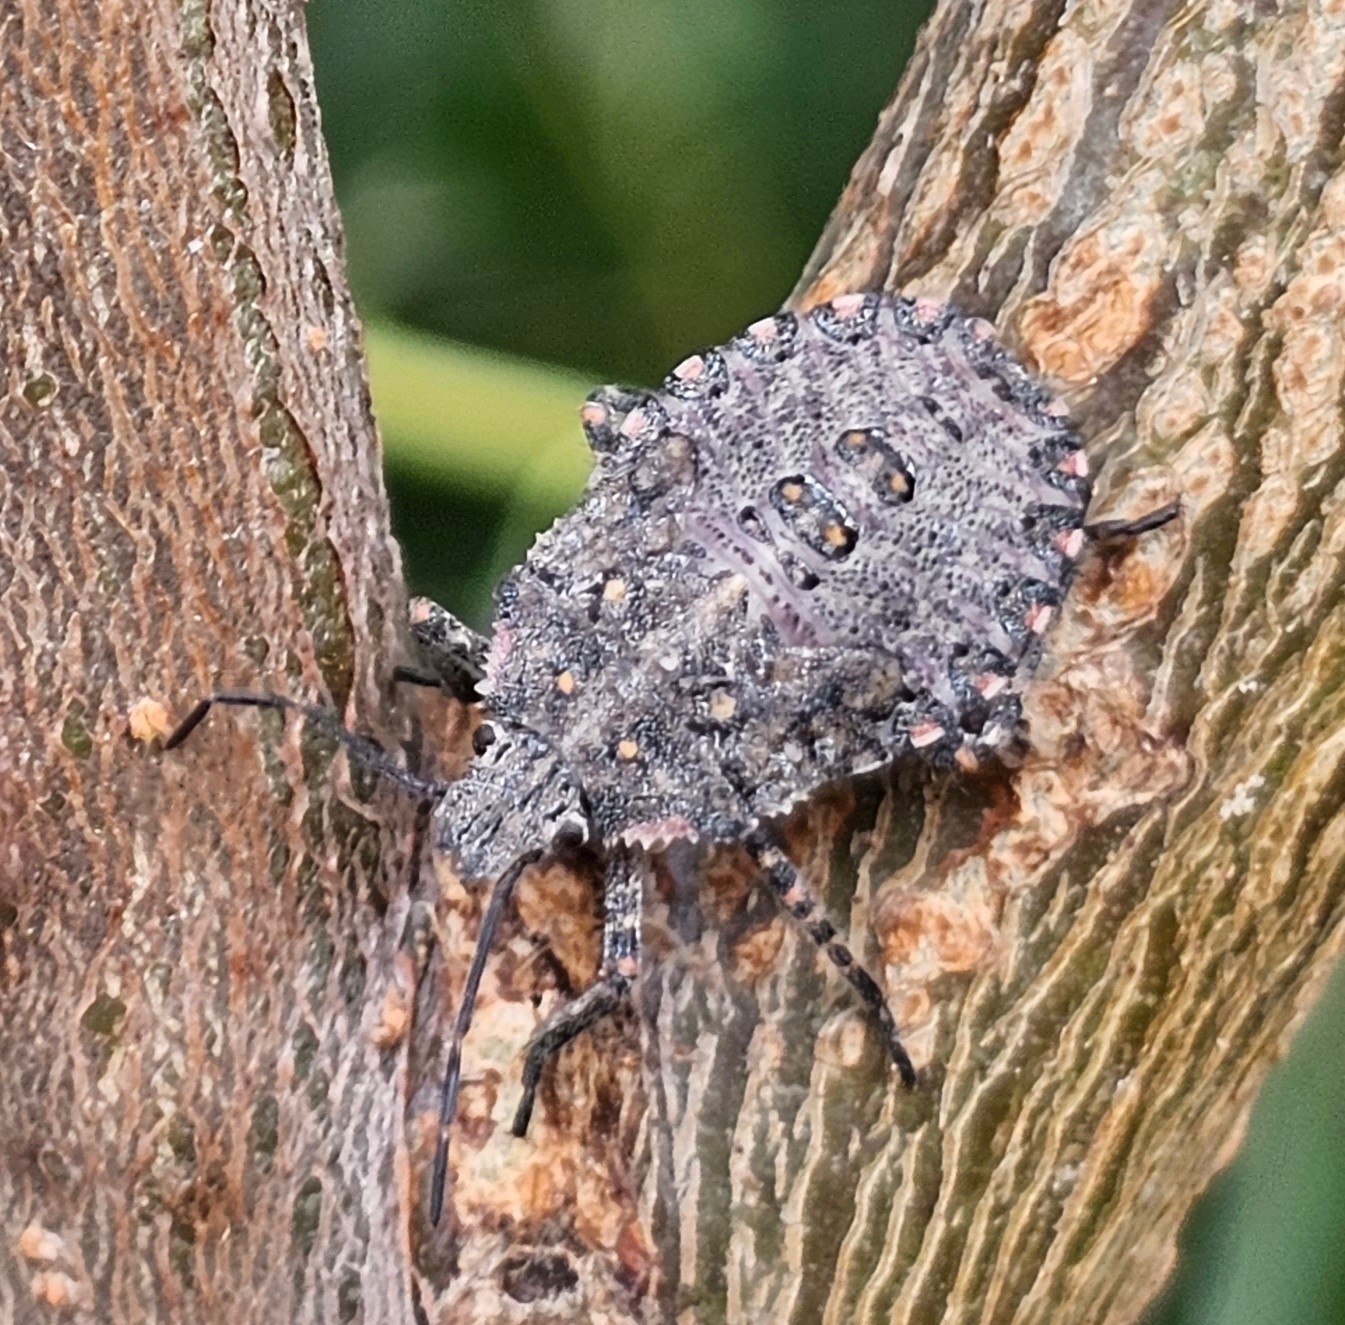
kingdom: Animalia
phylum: Arthropoda
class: Insecta
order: Hemiptera
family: Pentatomidae
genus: Brochymena
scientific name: Brochymena quadripustulata
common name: Four-humped stink bug
